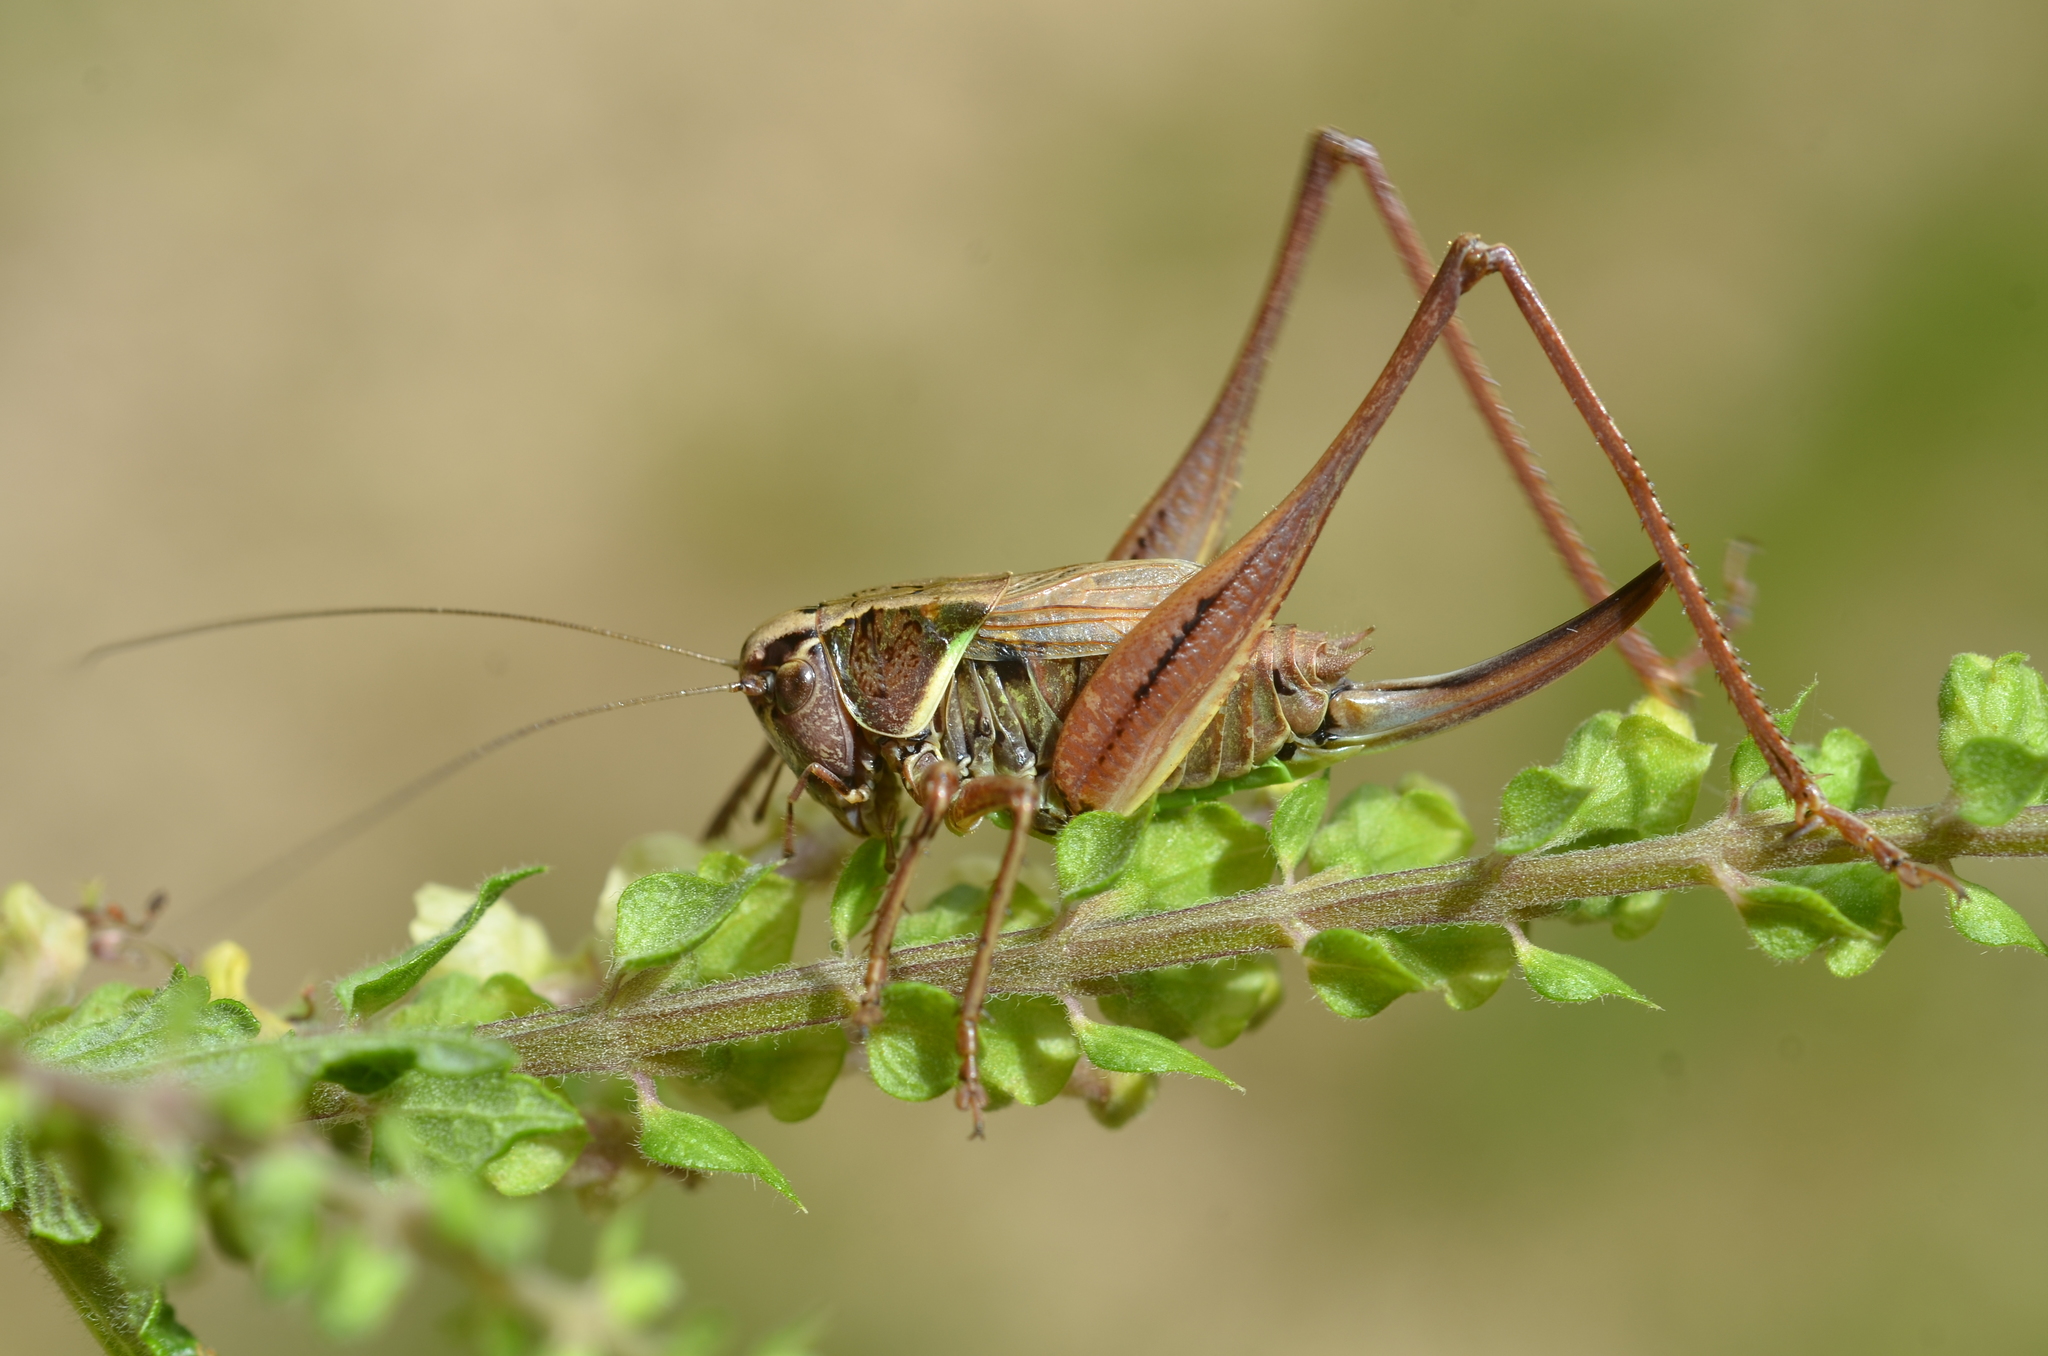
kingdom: Animalia
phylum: Arthropoda
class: Insecta
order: Orthoptera
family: Tettigoniidae
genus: Metrioptera
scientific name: Metrioptera saussuriana
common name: Purple meadow bush-cricket
